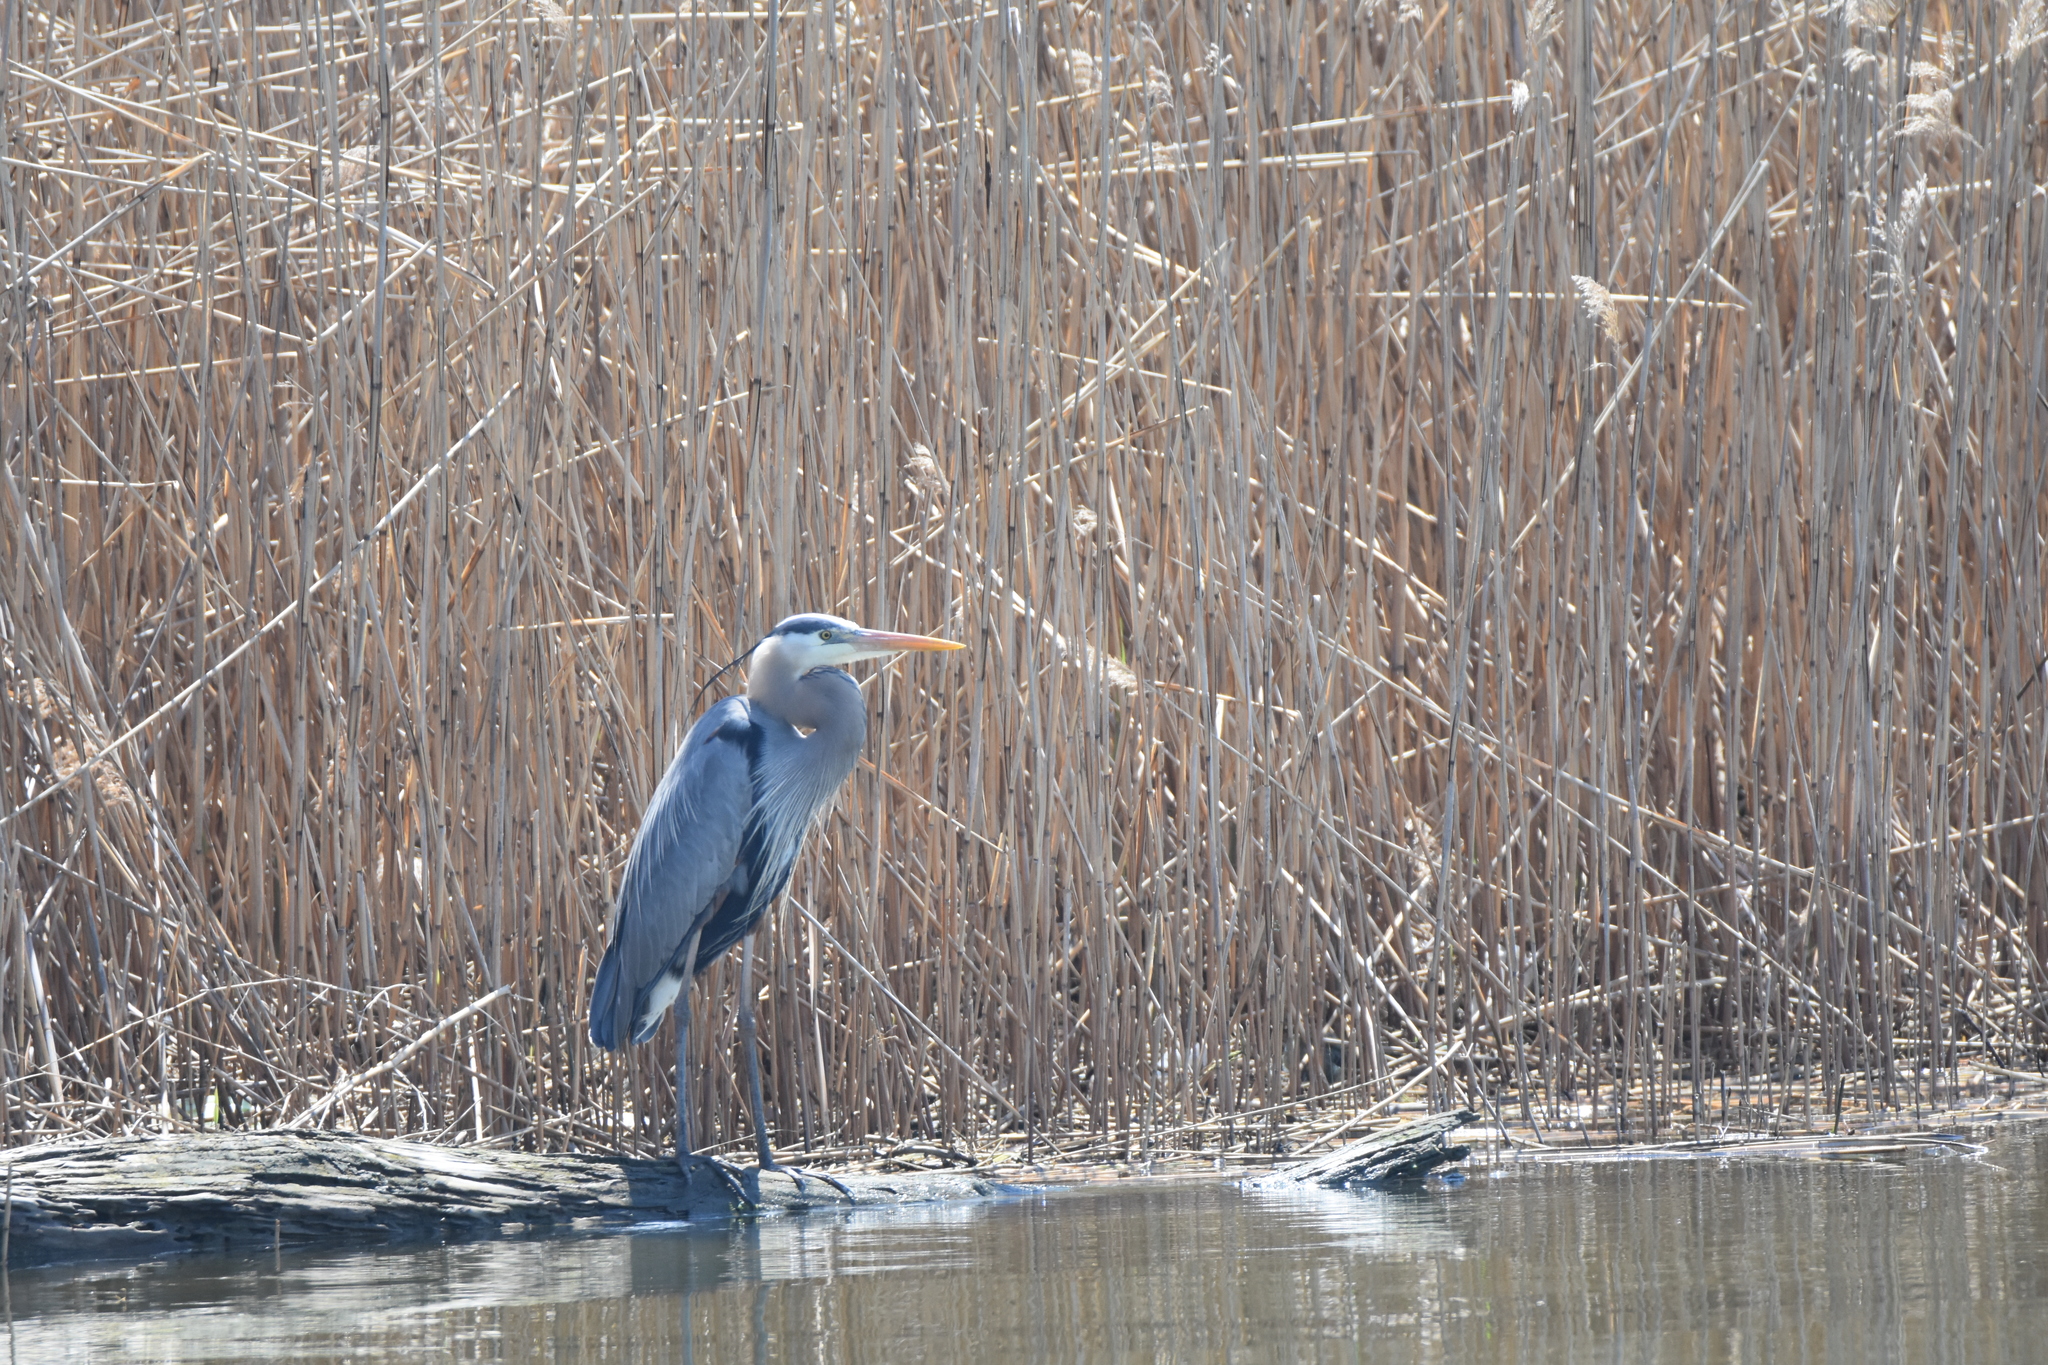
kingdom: Animalia
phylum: Chordata
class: Aves
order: Pelecaniformes
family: Ardeidae
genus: Ardea
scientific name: Ardea herodias
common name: Great blue heron
